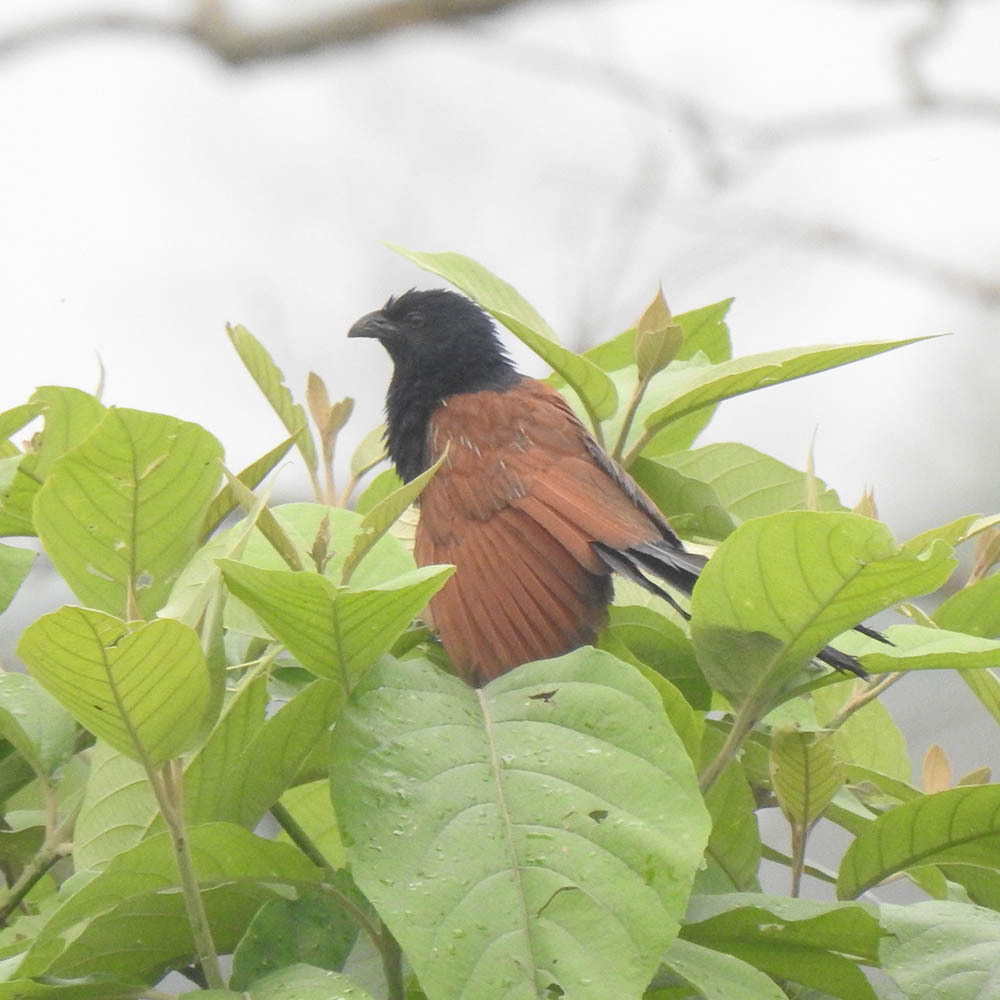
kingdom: Animalia
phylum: Chordata
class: Aves
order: Cuculiformes
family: Cuculidae
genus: Centropus
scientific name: Centropus bengalensis
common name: Lesser coucal
